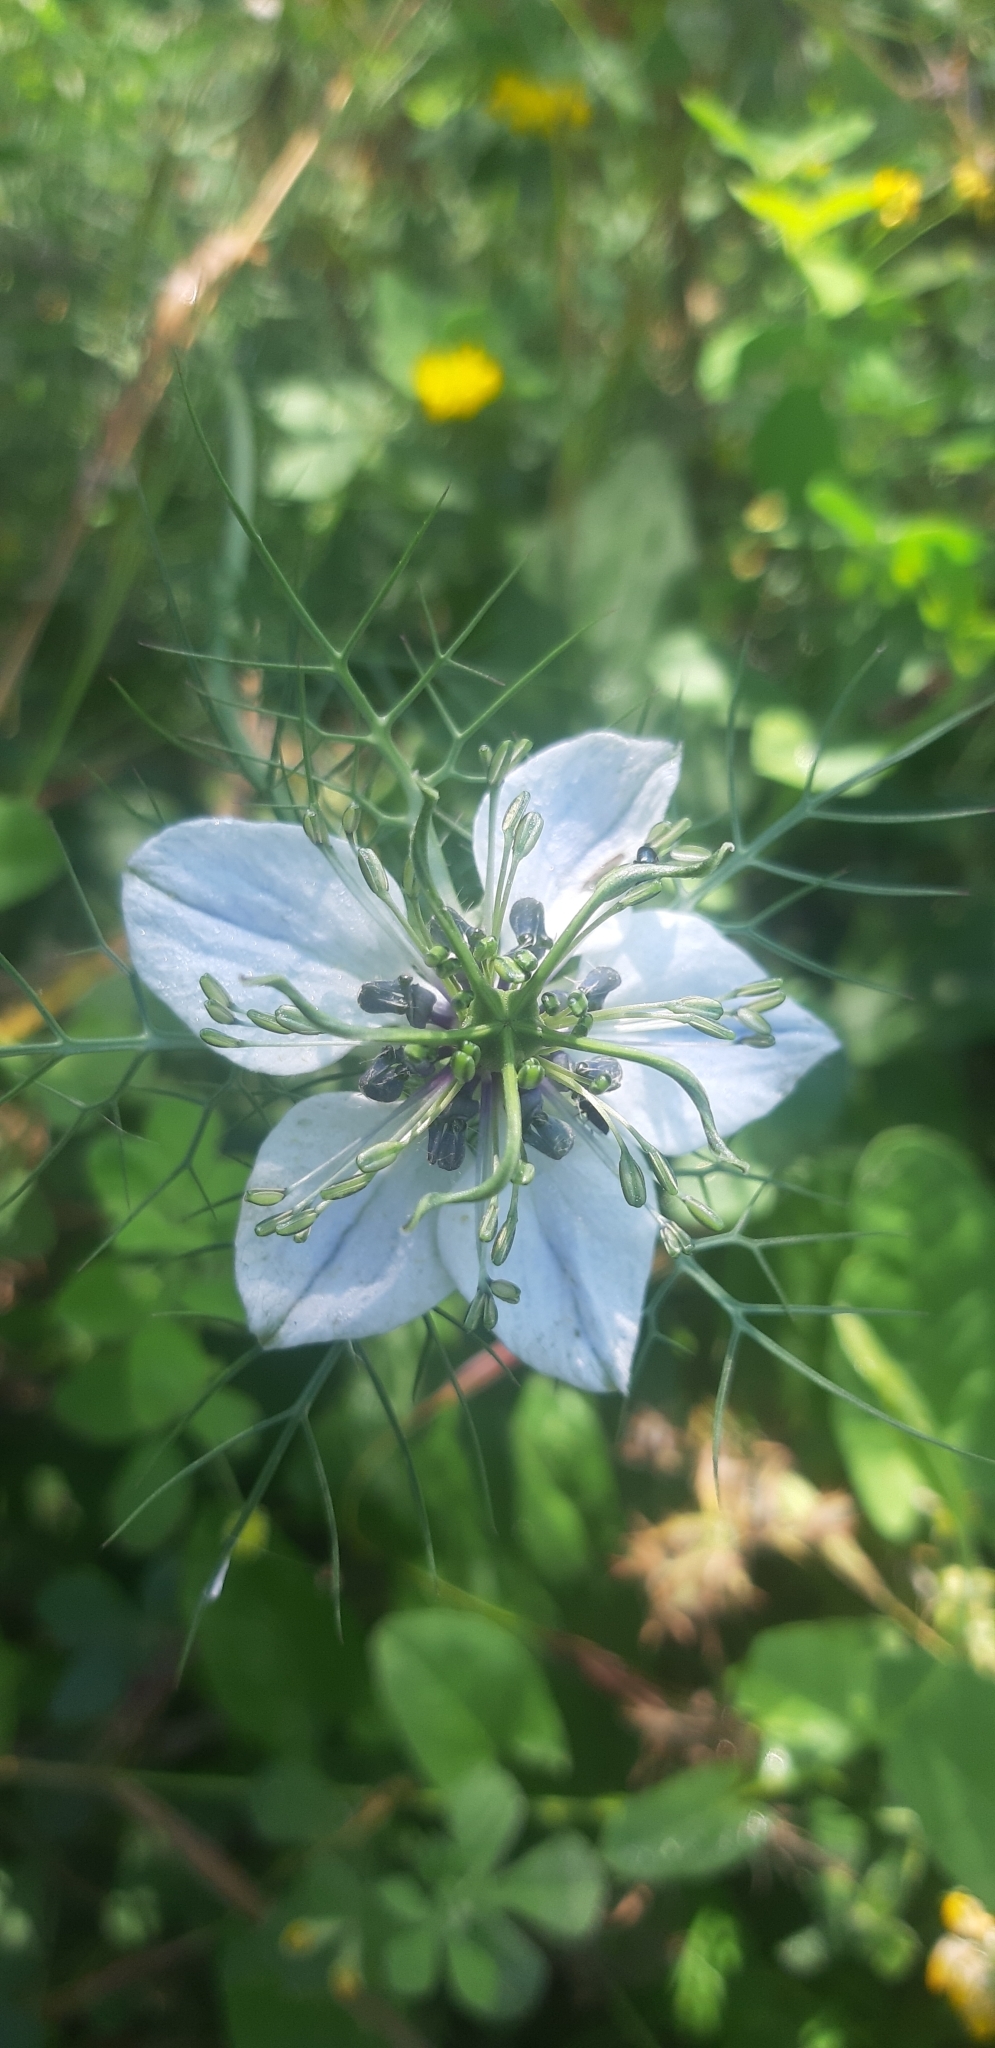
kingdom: Plantae
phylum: Tracheophyta
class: Magnoliopsida
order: Ranunculales
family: Ranunculaceae
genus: Nigella
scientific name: Nigella damascena
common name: Love-in-a-mist
